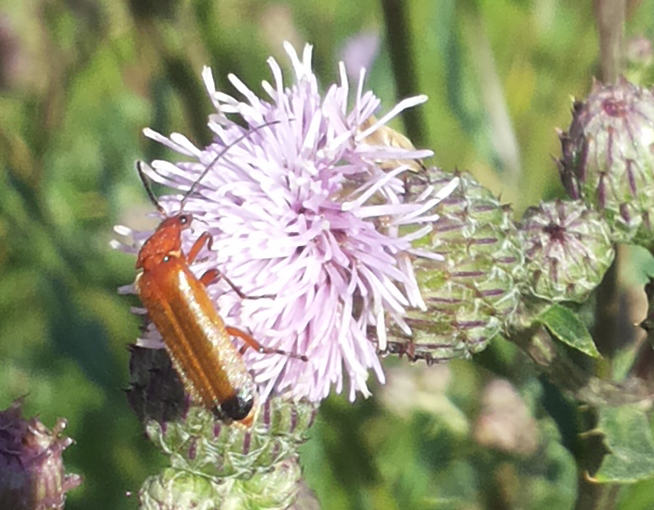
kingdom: Animalia
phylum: Arthropoda
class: Insecta
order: Coleoptera
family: Cantharidae
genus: Rhagonycha
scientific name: Rhagonycha fulva
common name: Common red soldier beetle
